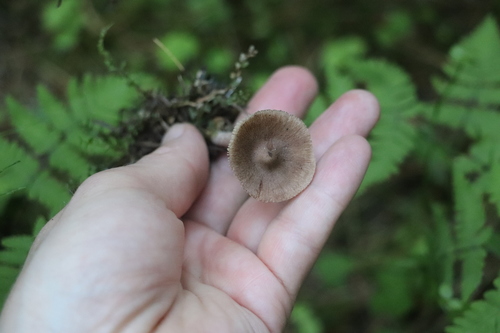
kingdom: Fungi
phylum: Basidiomycota
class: Agaricomycetes
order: Agaricales
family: Inocybaceae
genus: Inocybe
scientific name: Inocybe
